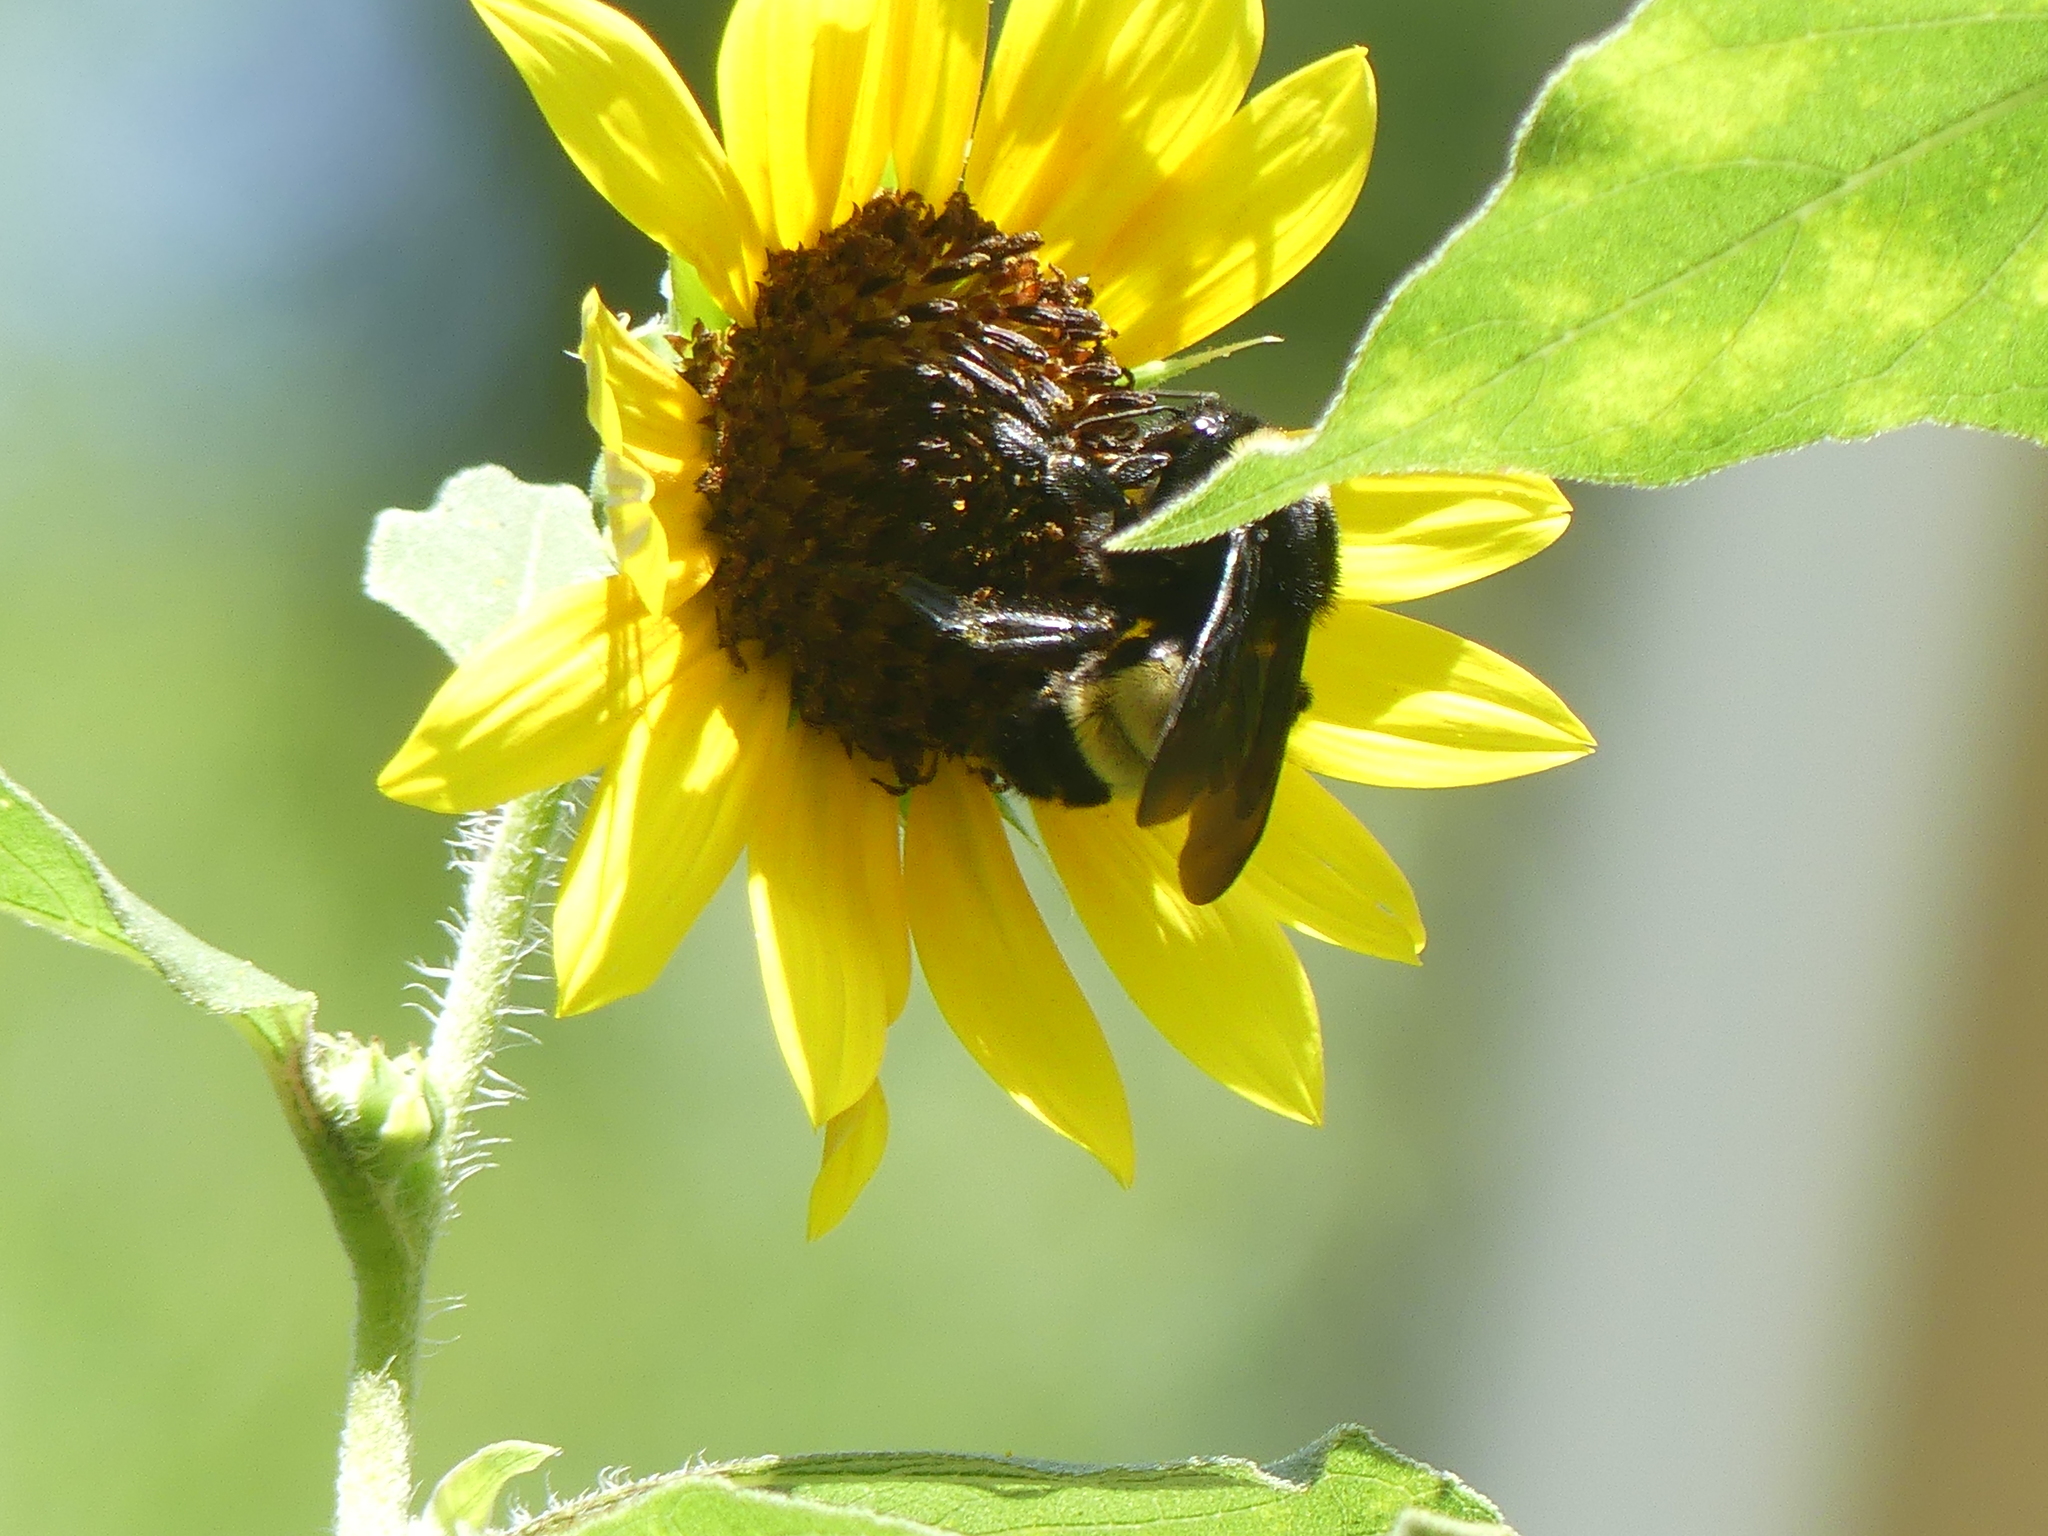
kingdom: Animalia
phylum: Arthropoda
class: Insecta
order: Hymenoptera
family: Apidae
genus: Bombus
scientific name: Bombus pensylvanicus
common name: Bumble bee
